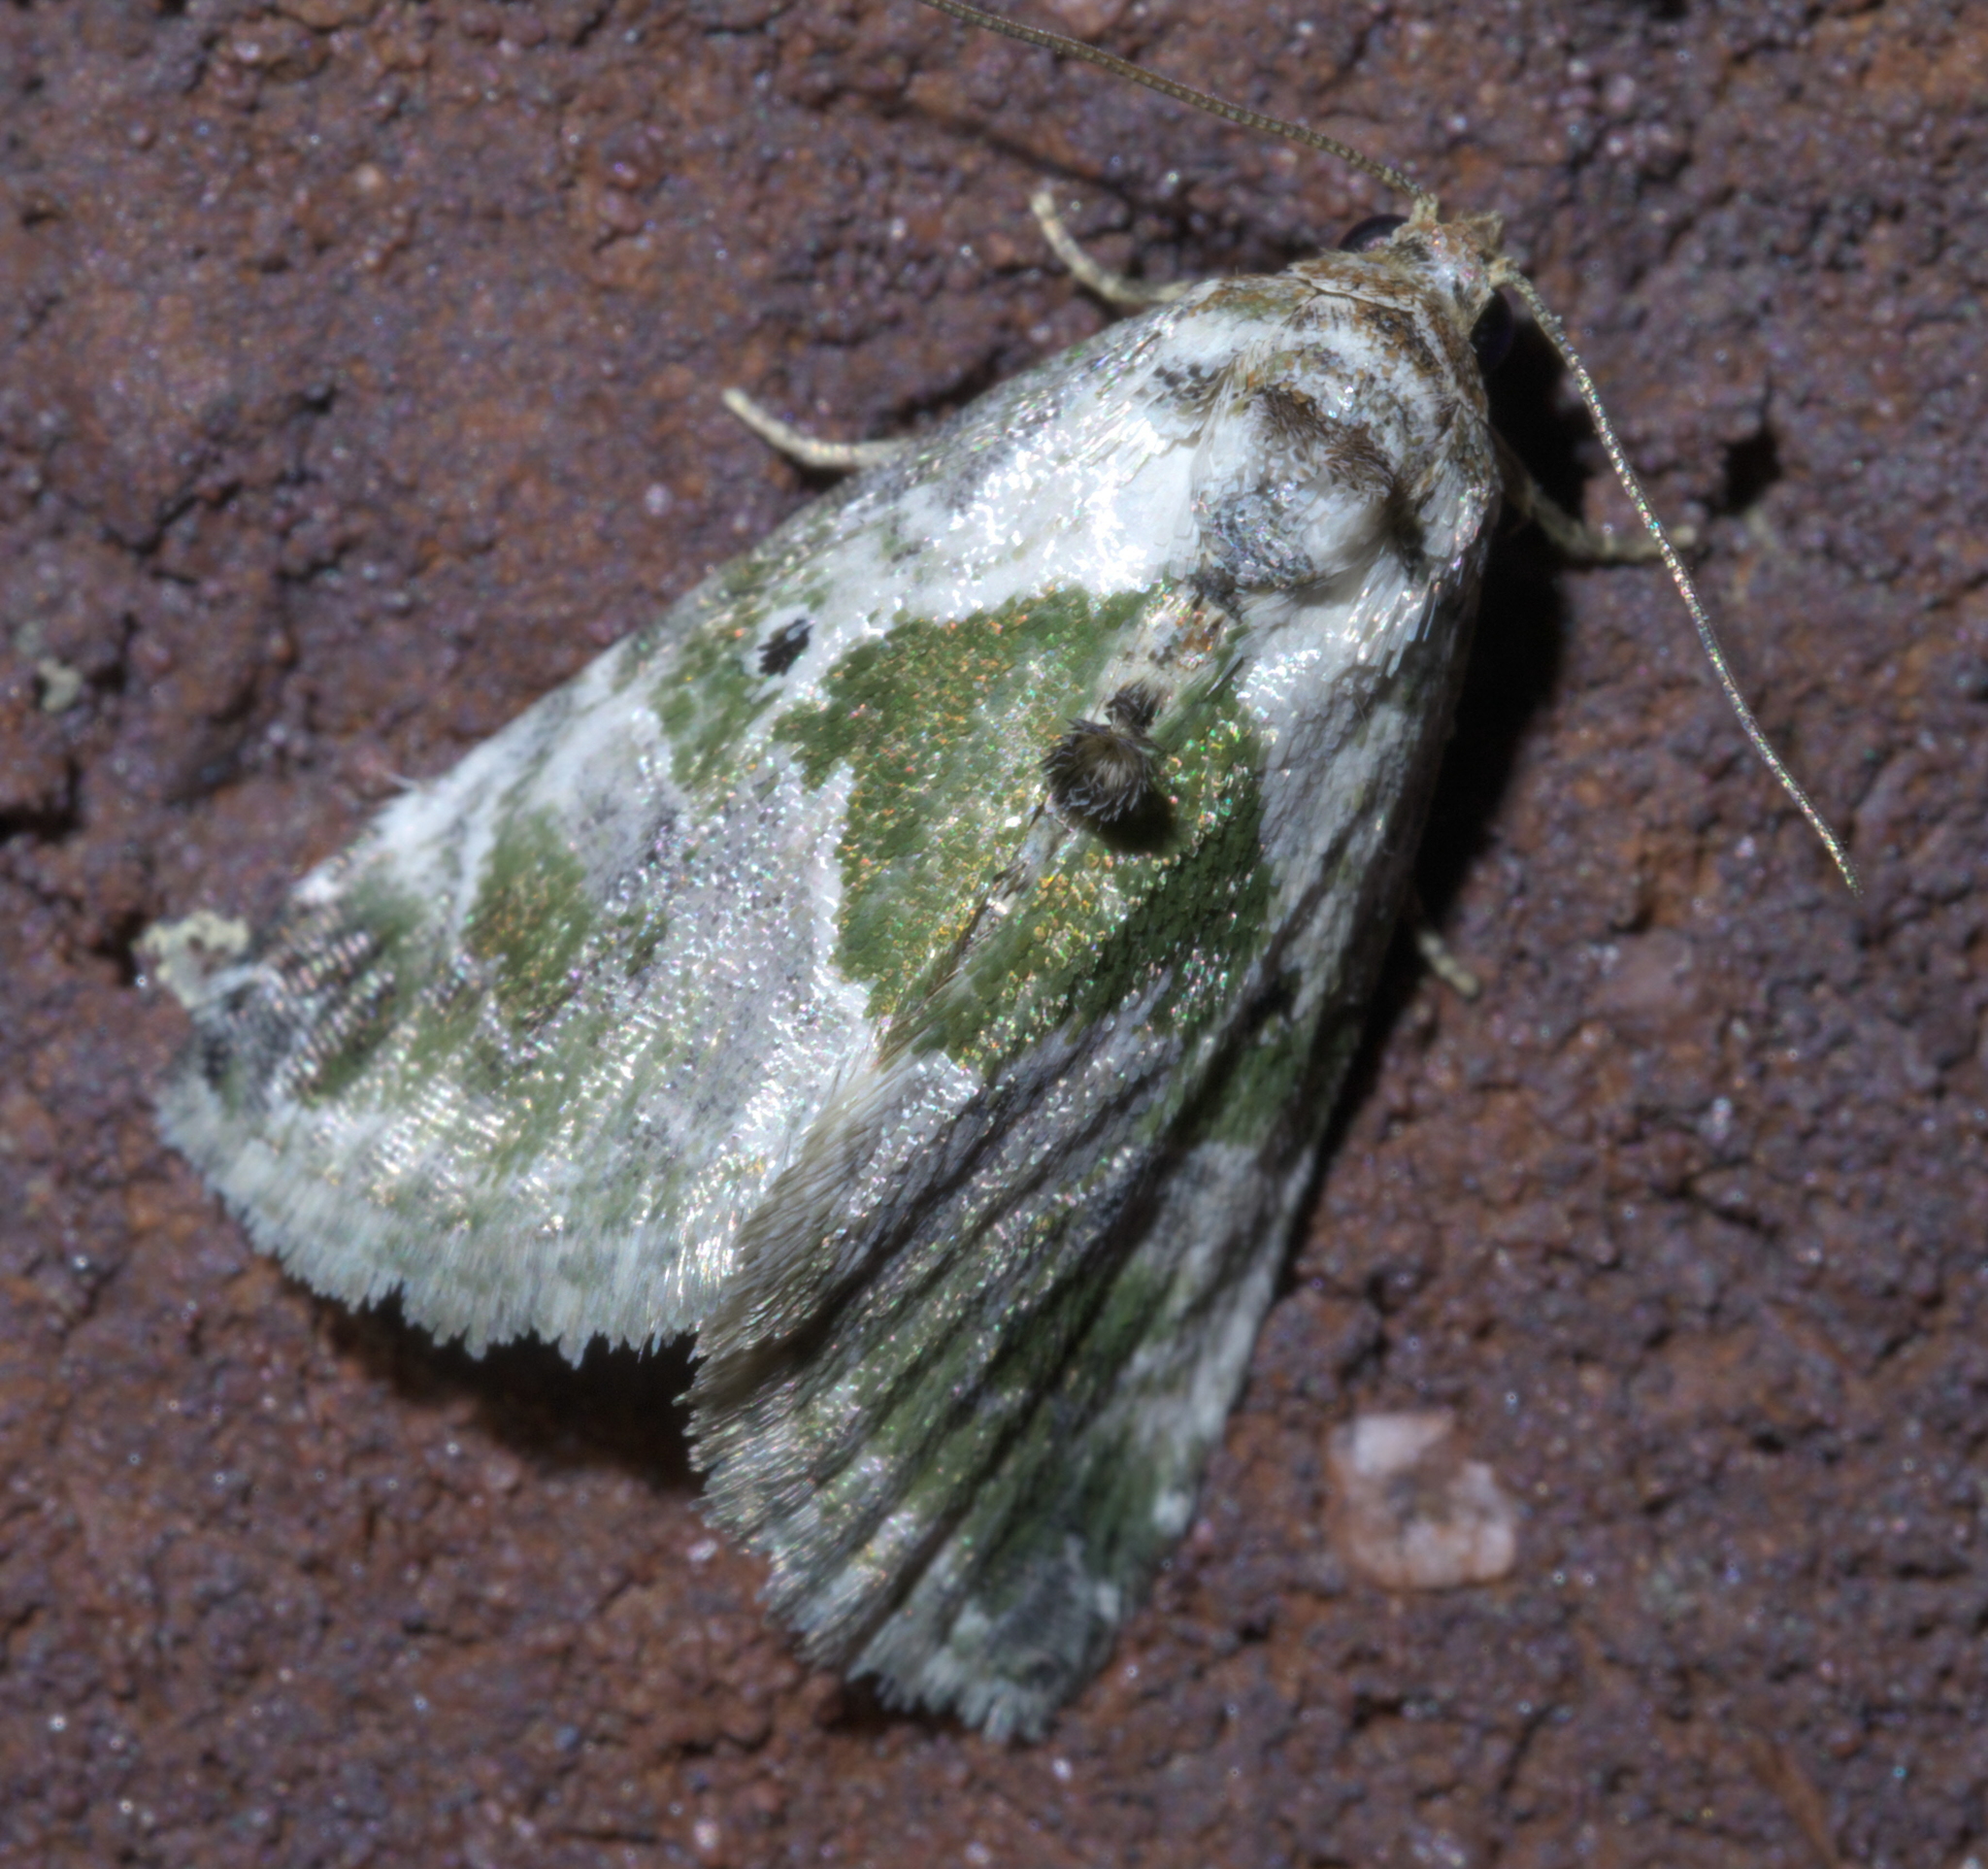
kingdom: Animalia
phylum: Arthropoda
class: Insecta
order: Lepidoptera
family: Noctuidae
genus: Maliattha
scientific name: Maliattha synochitis
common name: Black-dotted glyph
